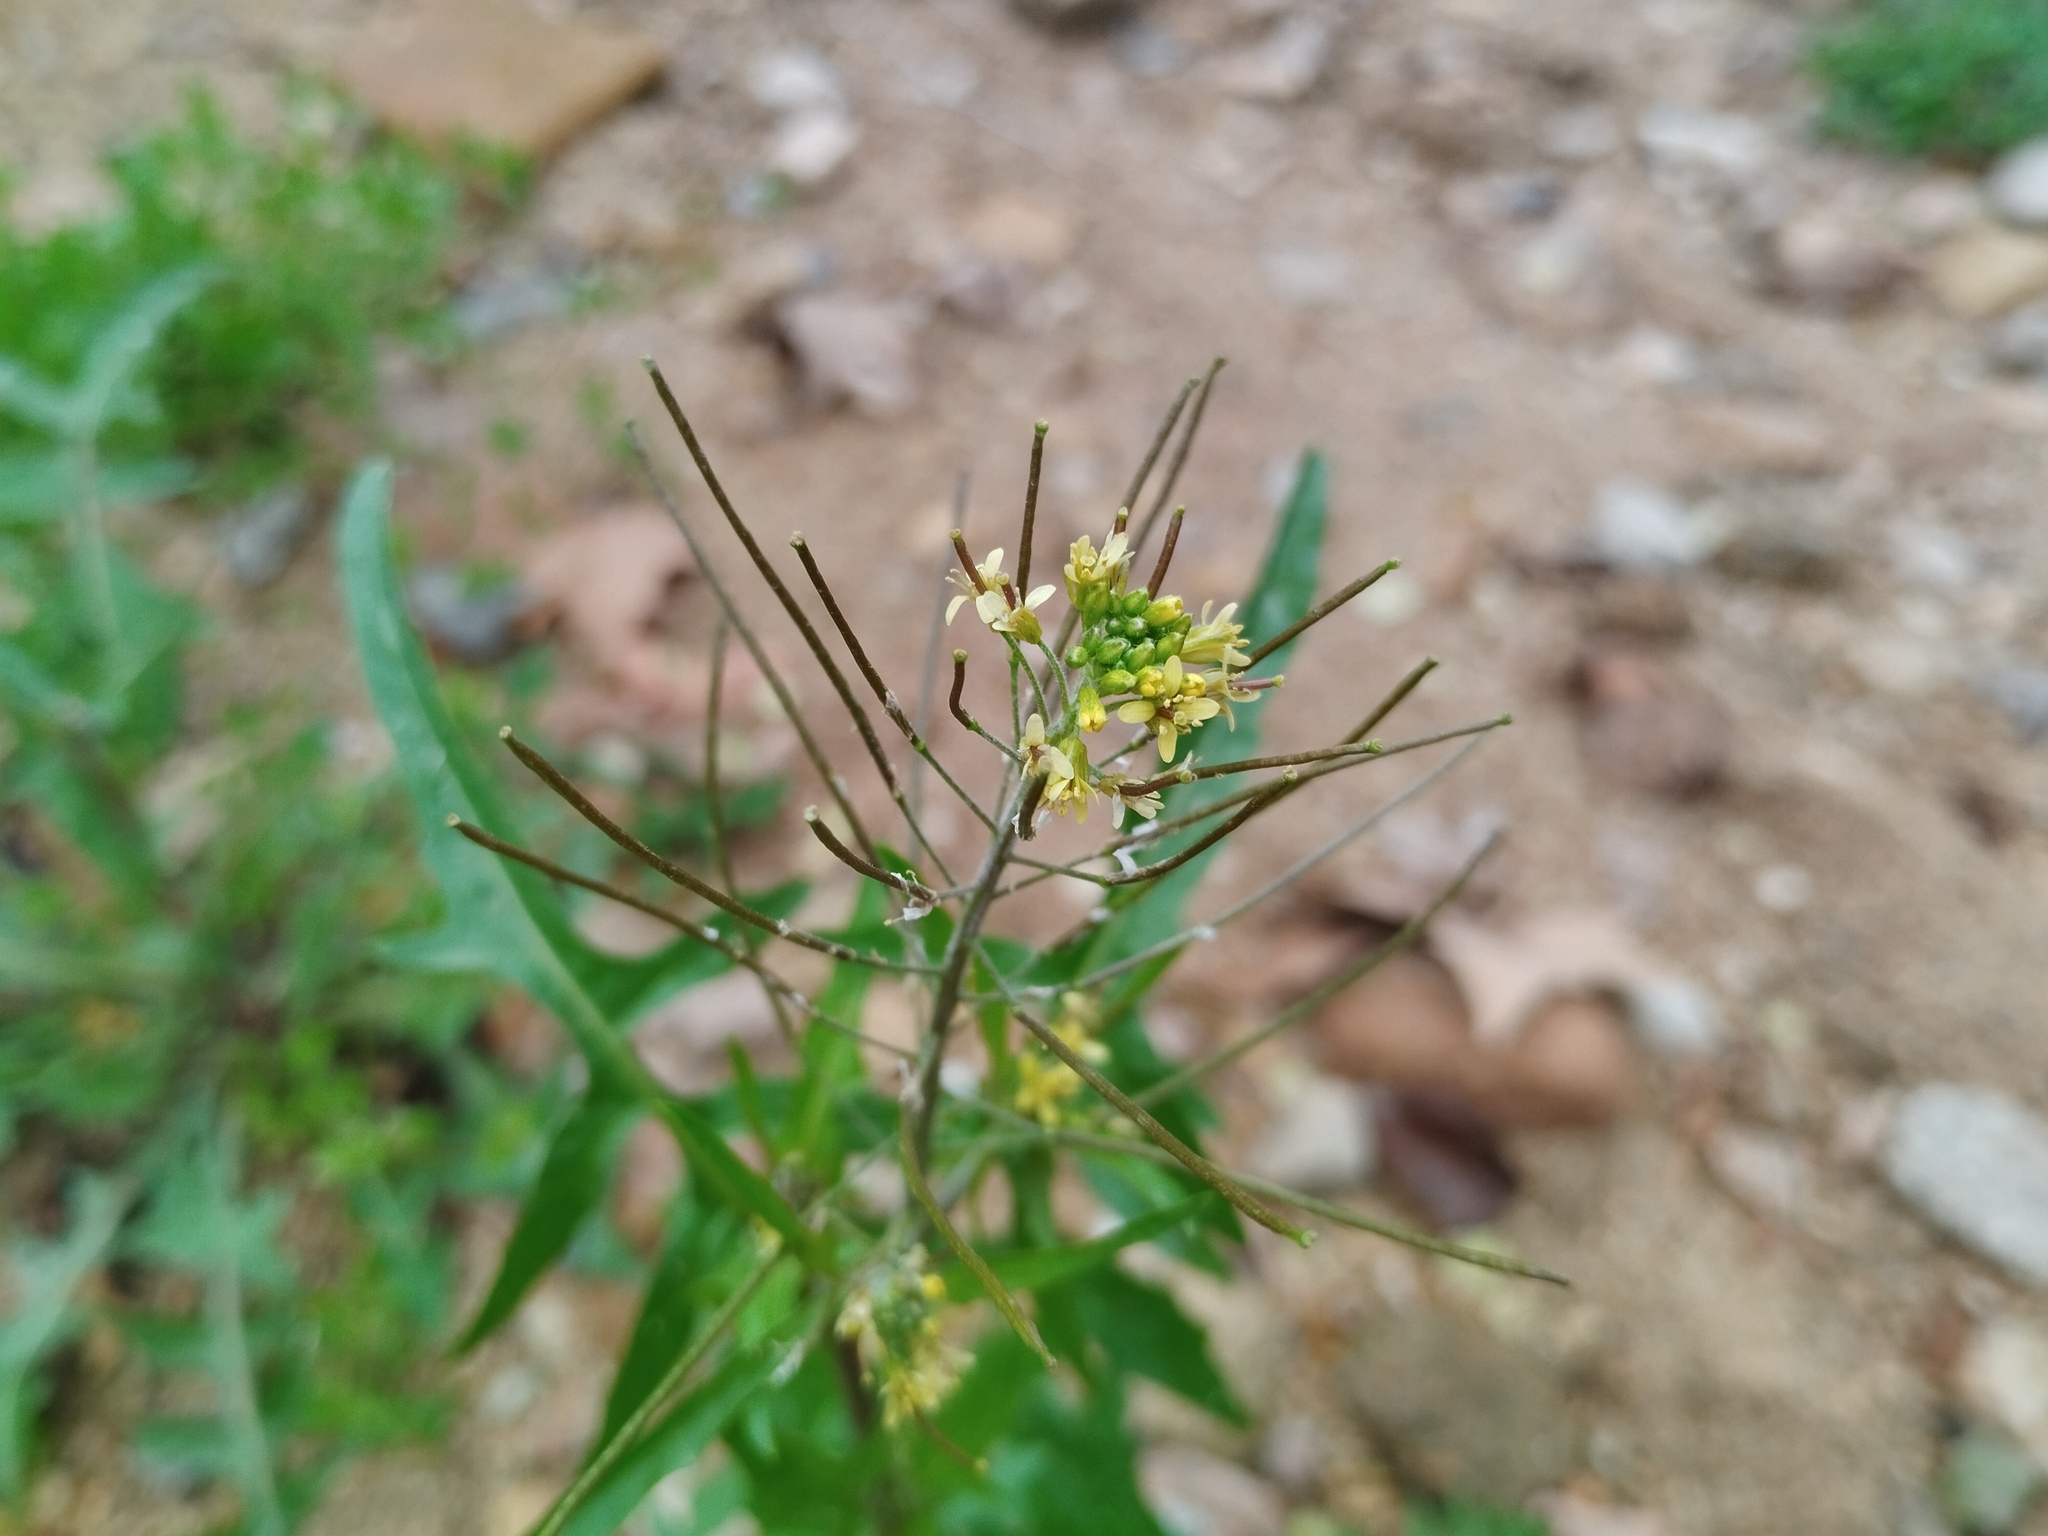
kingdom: Plantae
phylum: Tracheophyta
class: Magnoliopsida
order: Brassicales
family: Brassicaceae
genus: Sisymbrium
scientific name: Sisymbrium irio
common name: London rocket
